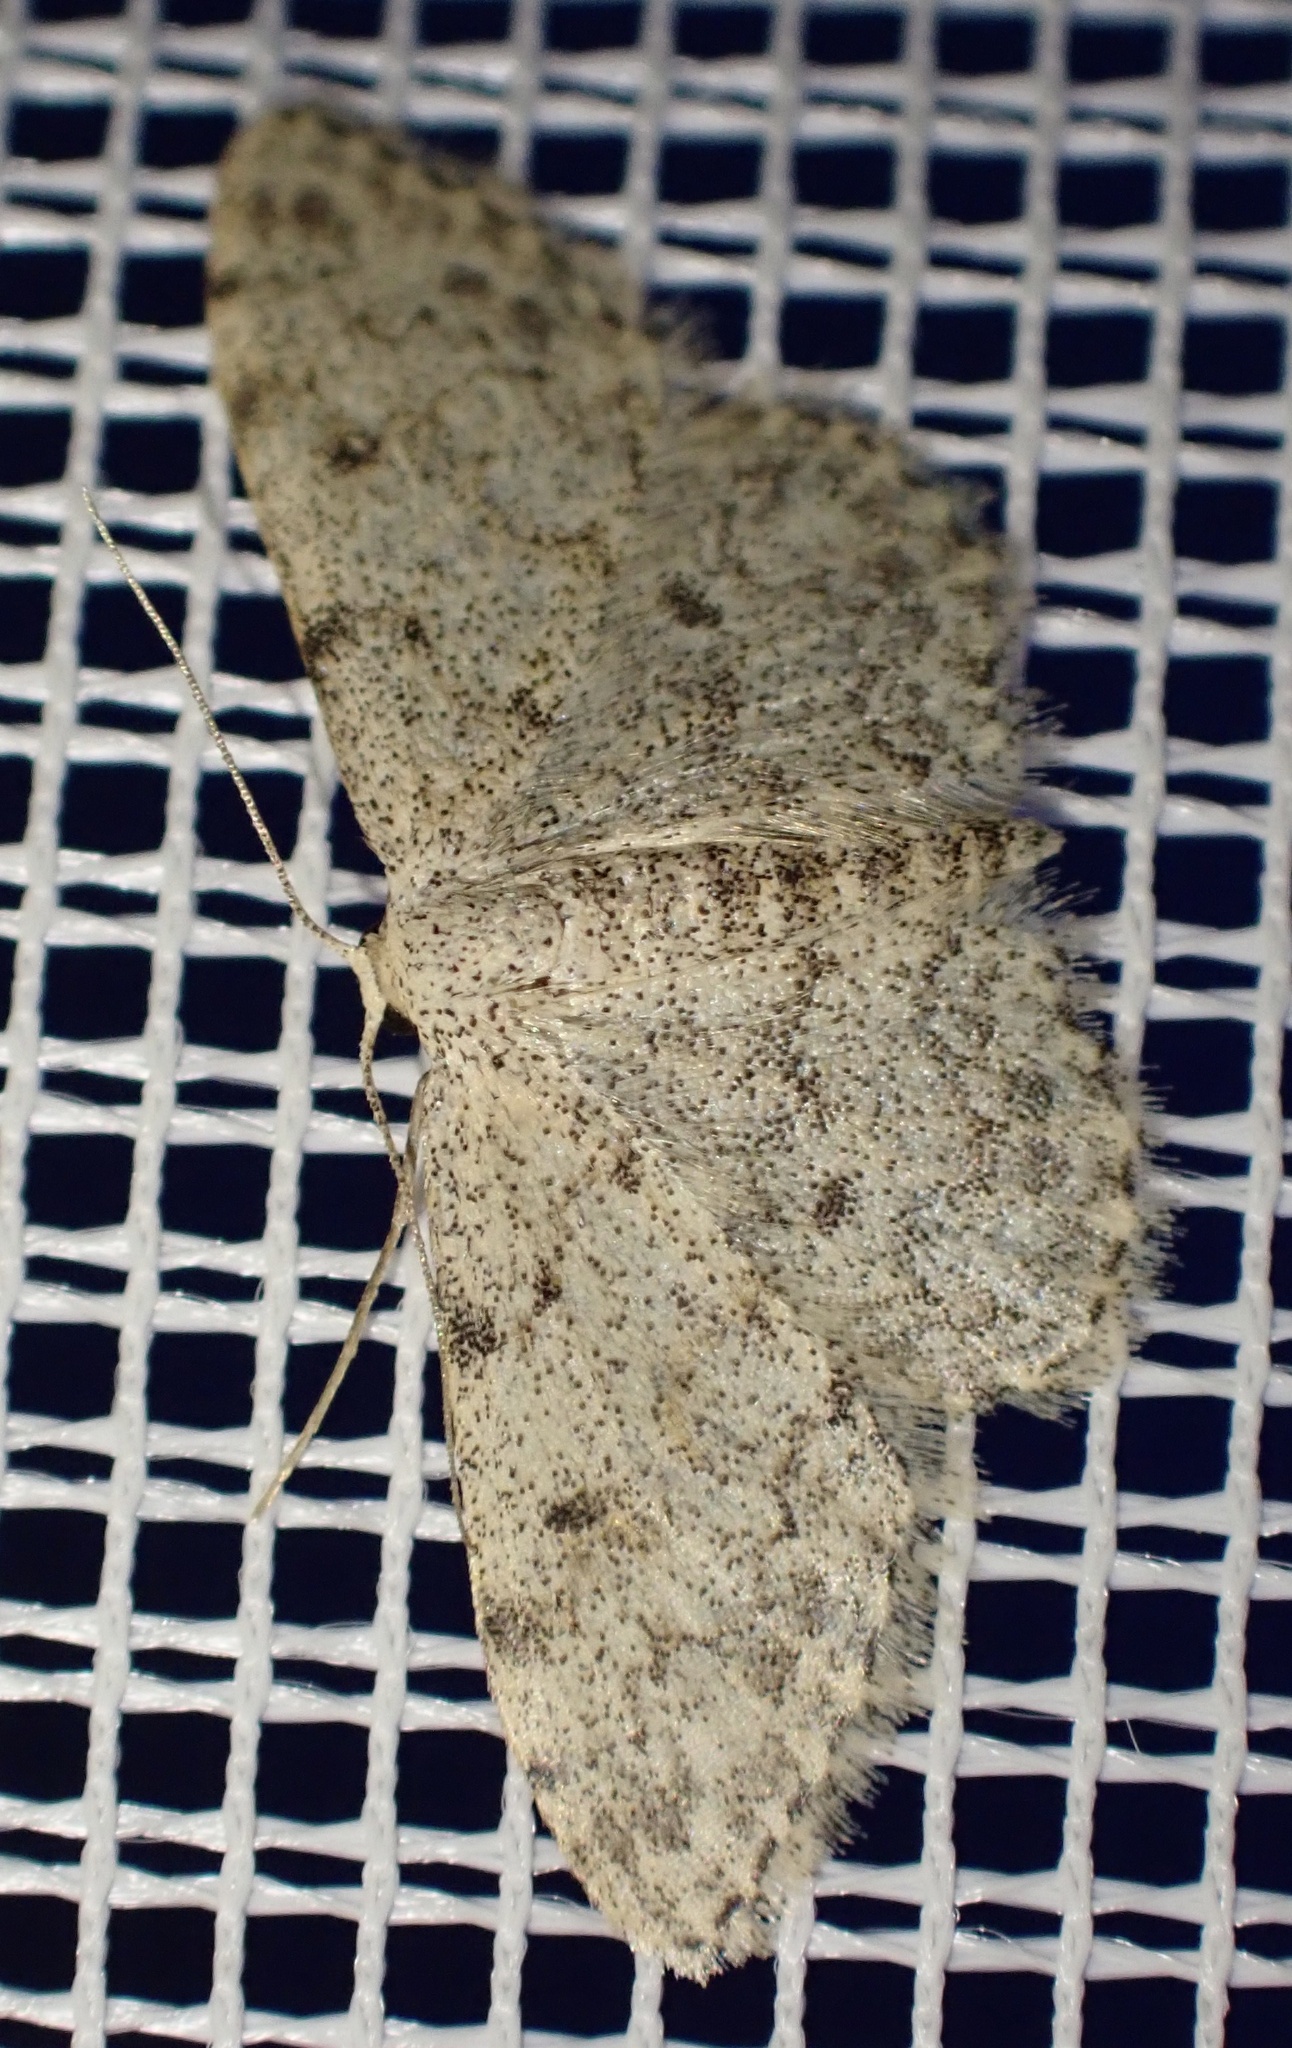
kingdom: Animalia
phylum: Arthropoda
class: Insecta
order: Lepidoptera
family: Geometridae
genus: Idaea
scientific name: Idaea incisaria
